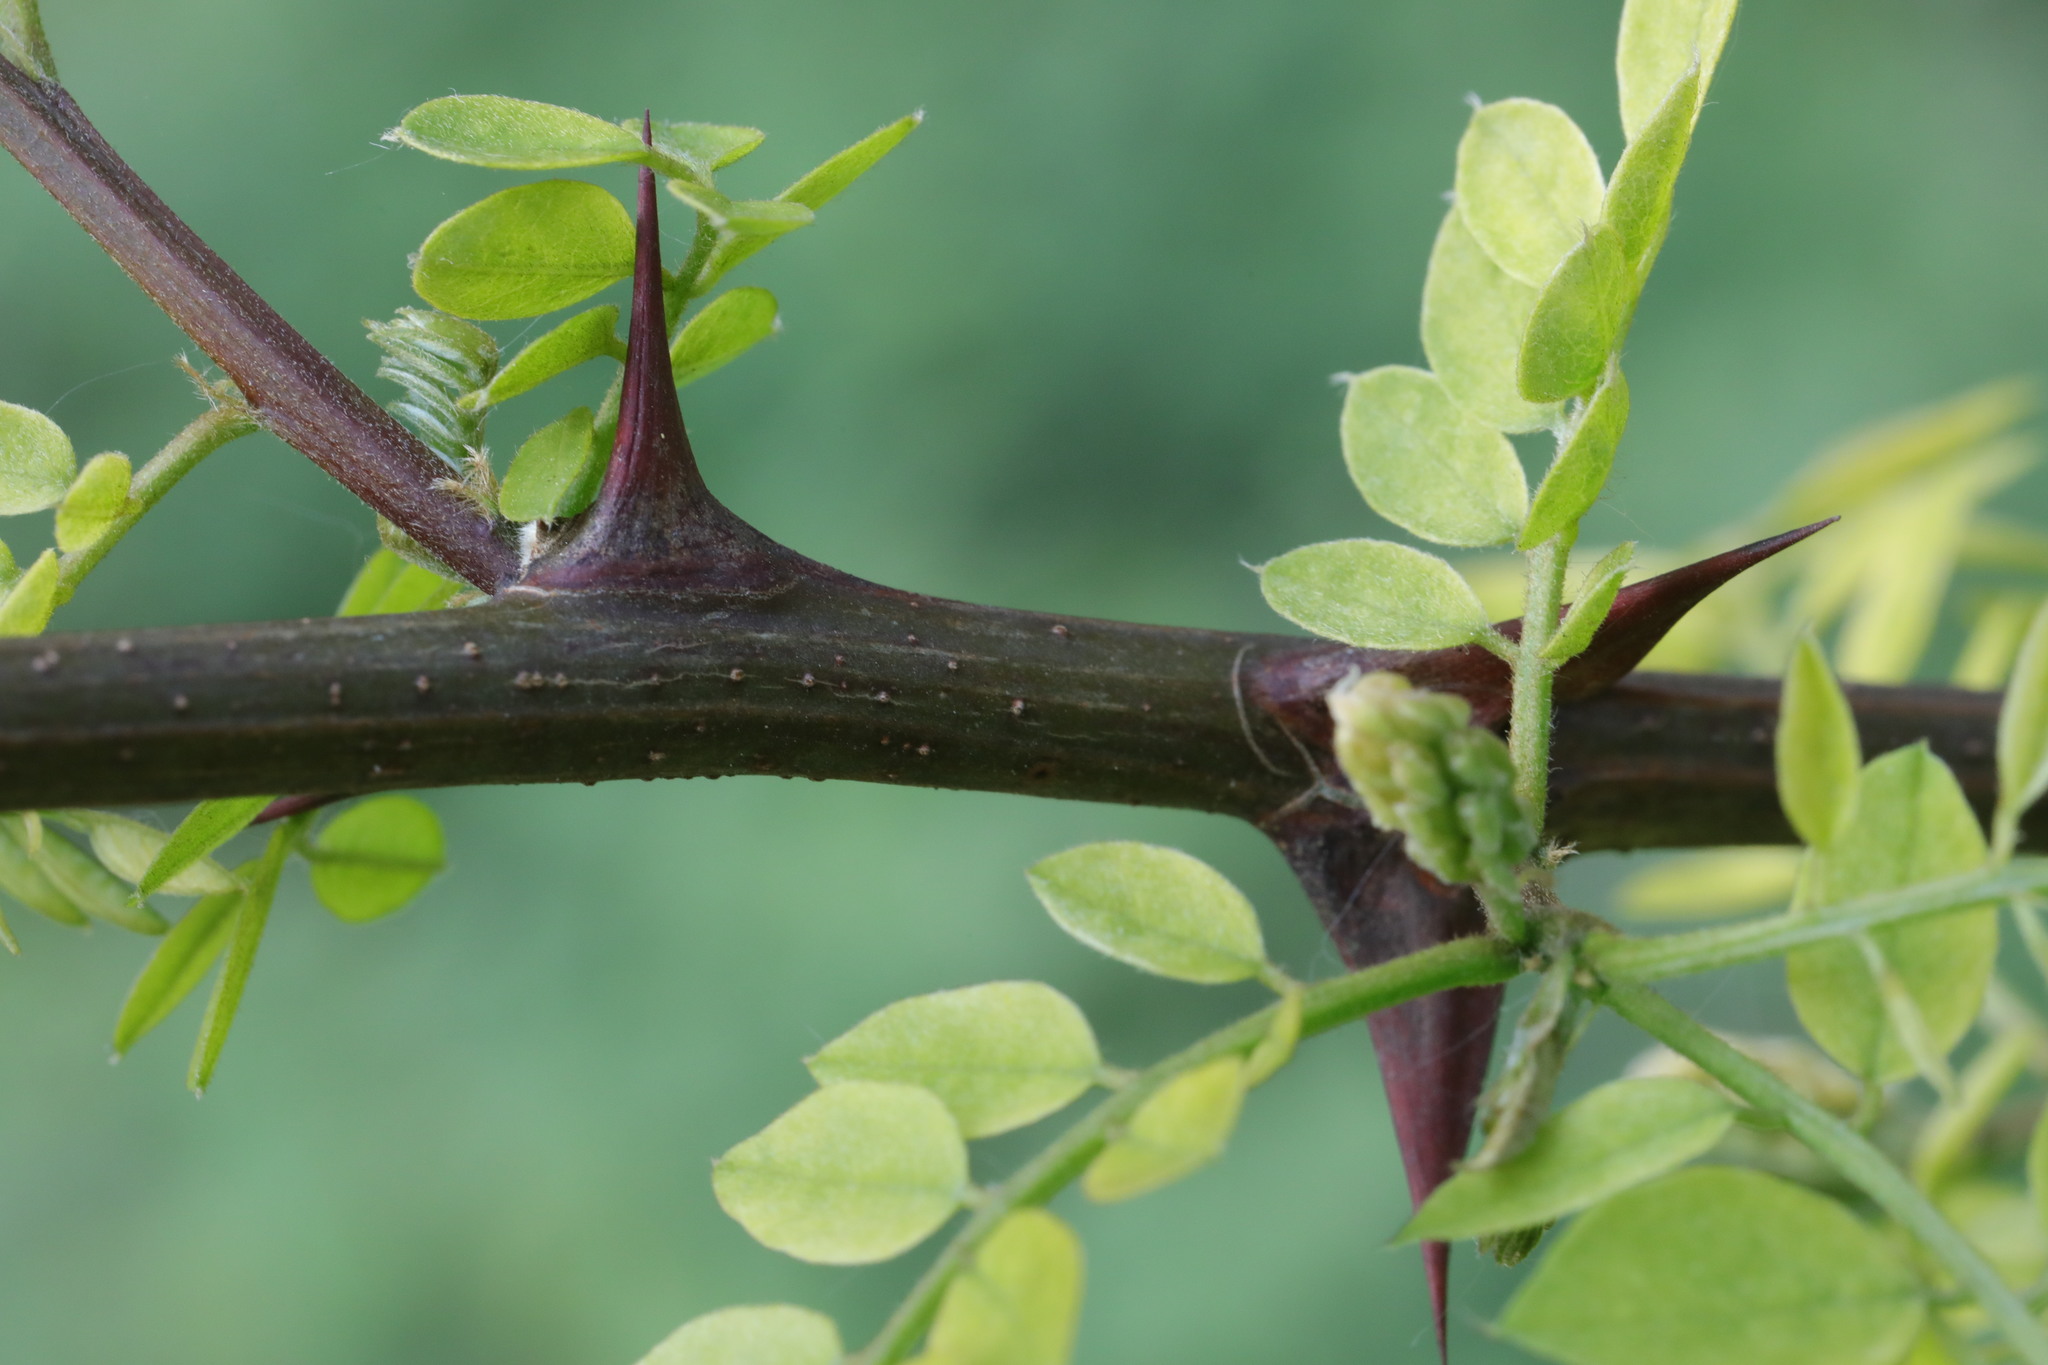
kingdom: Plantae
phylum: Tracheophyta
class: Magnoliopsida
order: Fabales
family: Fabaceae
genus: Robinia
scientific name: Robinia pseudoacacia
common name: Black locust
